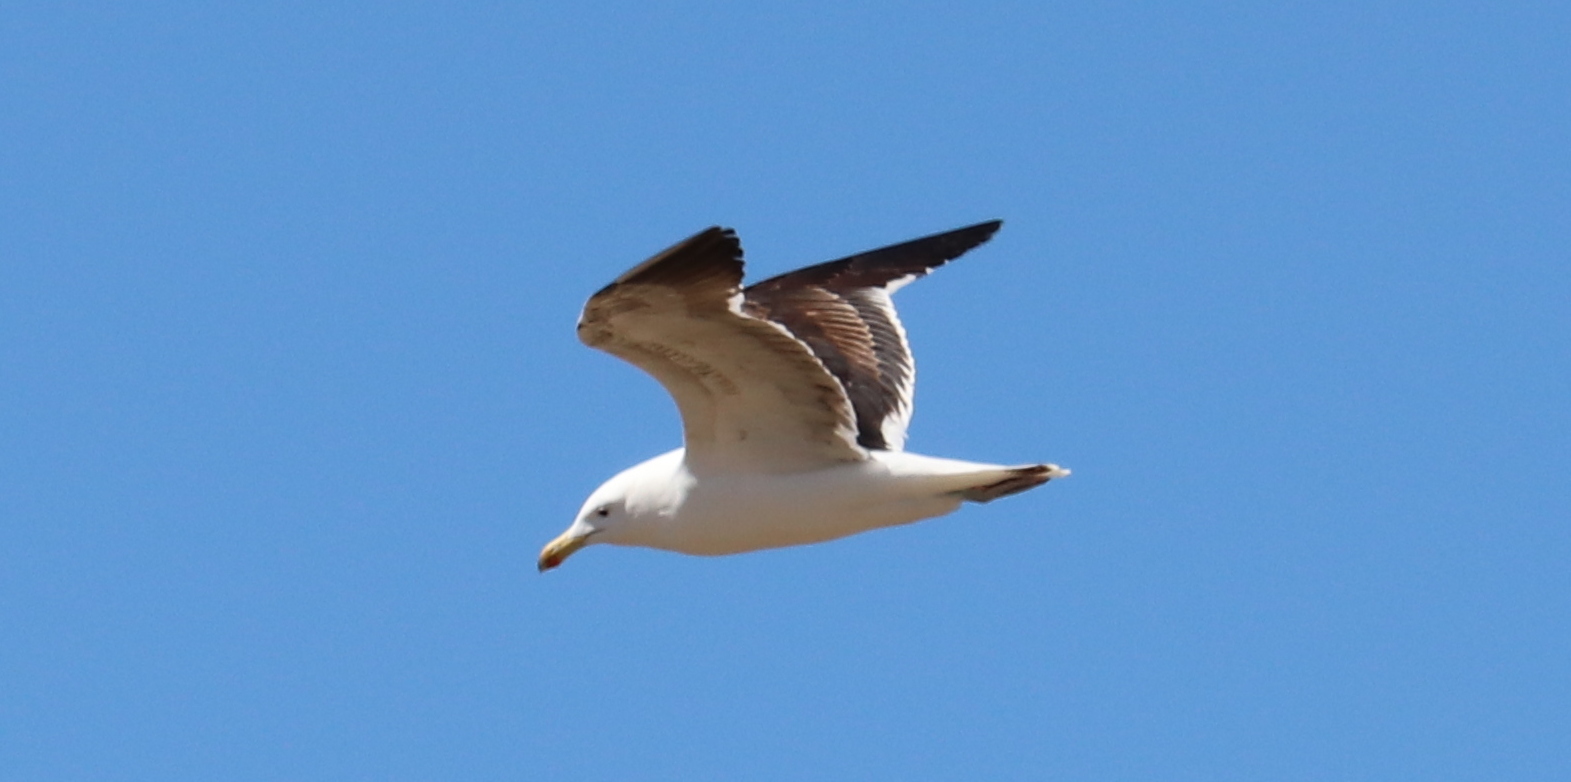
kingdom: Animalia
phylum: Chordata
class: Aves
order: Charadriiformes
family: Laridae
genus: Larus
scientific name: Larus dominicanus
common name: Kelp gull
